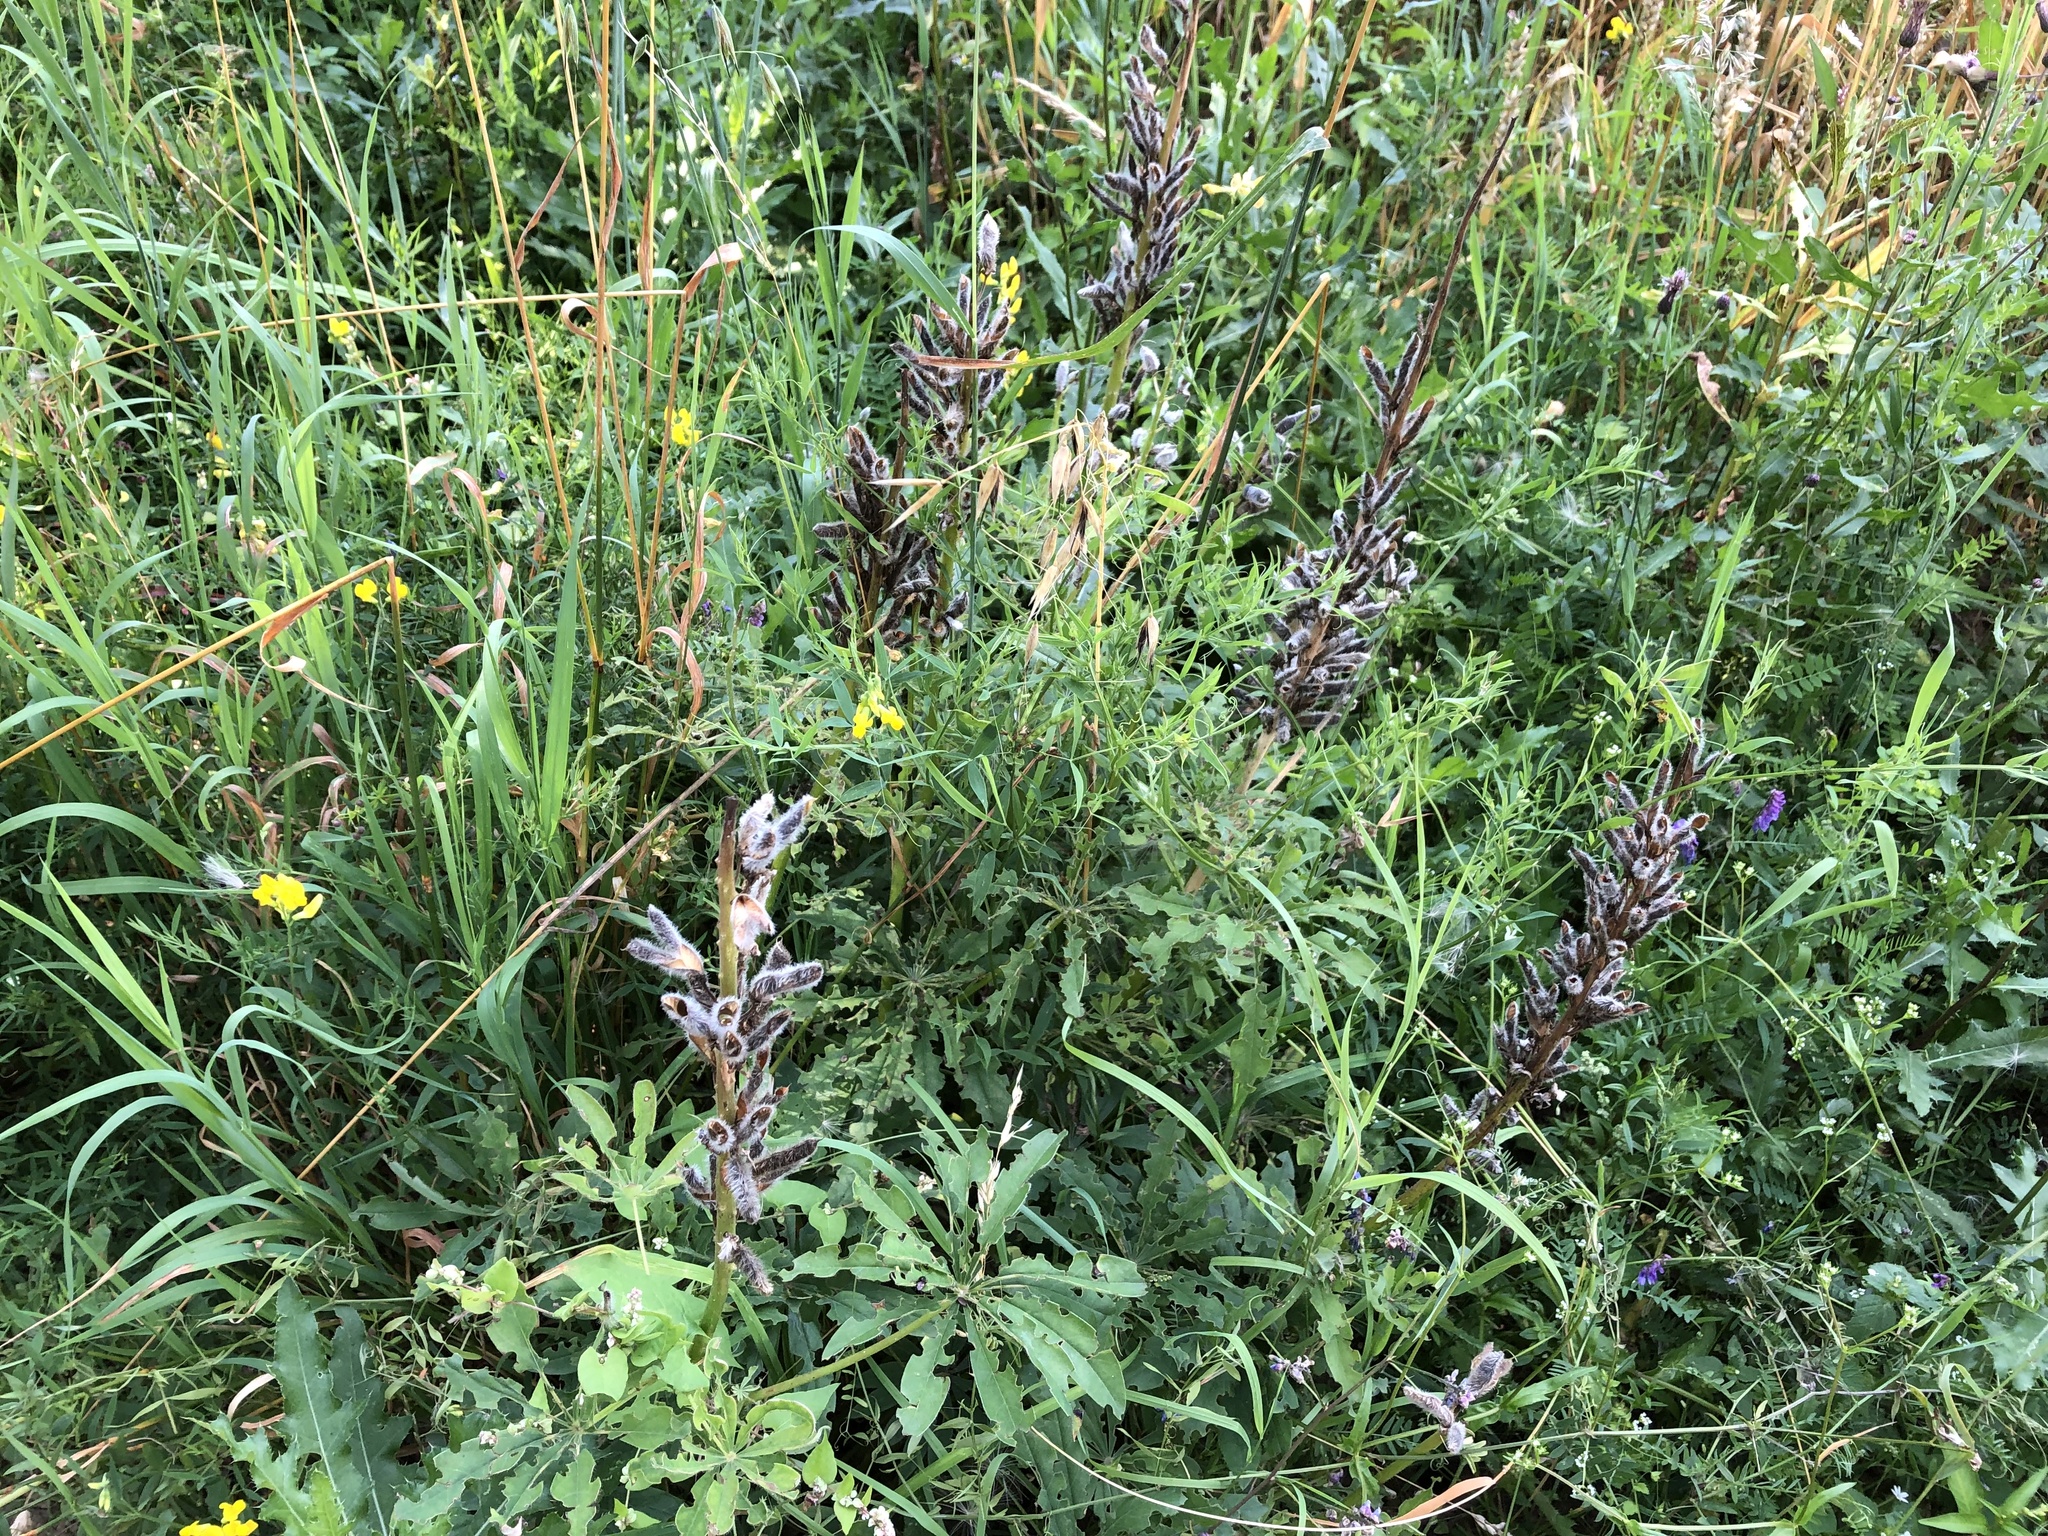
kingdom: Plantae
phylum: Tracheophyta
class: Magnoliopsida
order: Fabales
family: Fabaceae
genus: Lupinus
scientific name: Lupinus polyphyllus
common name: Garden lupin
